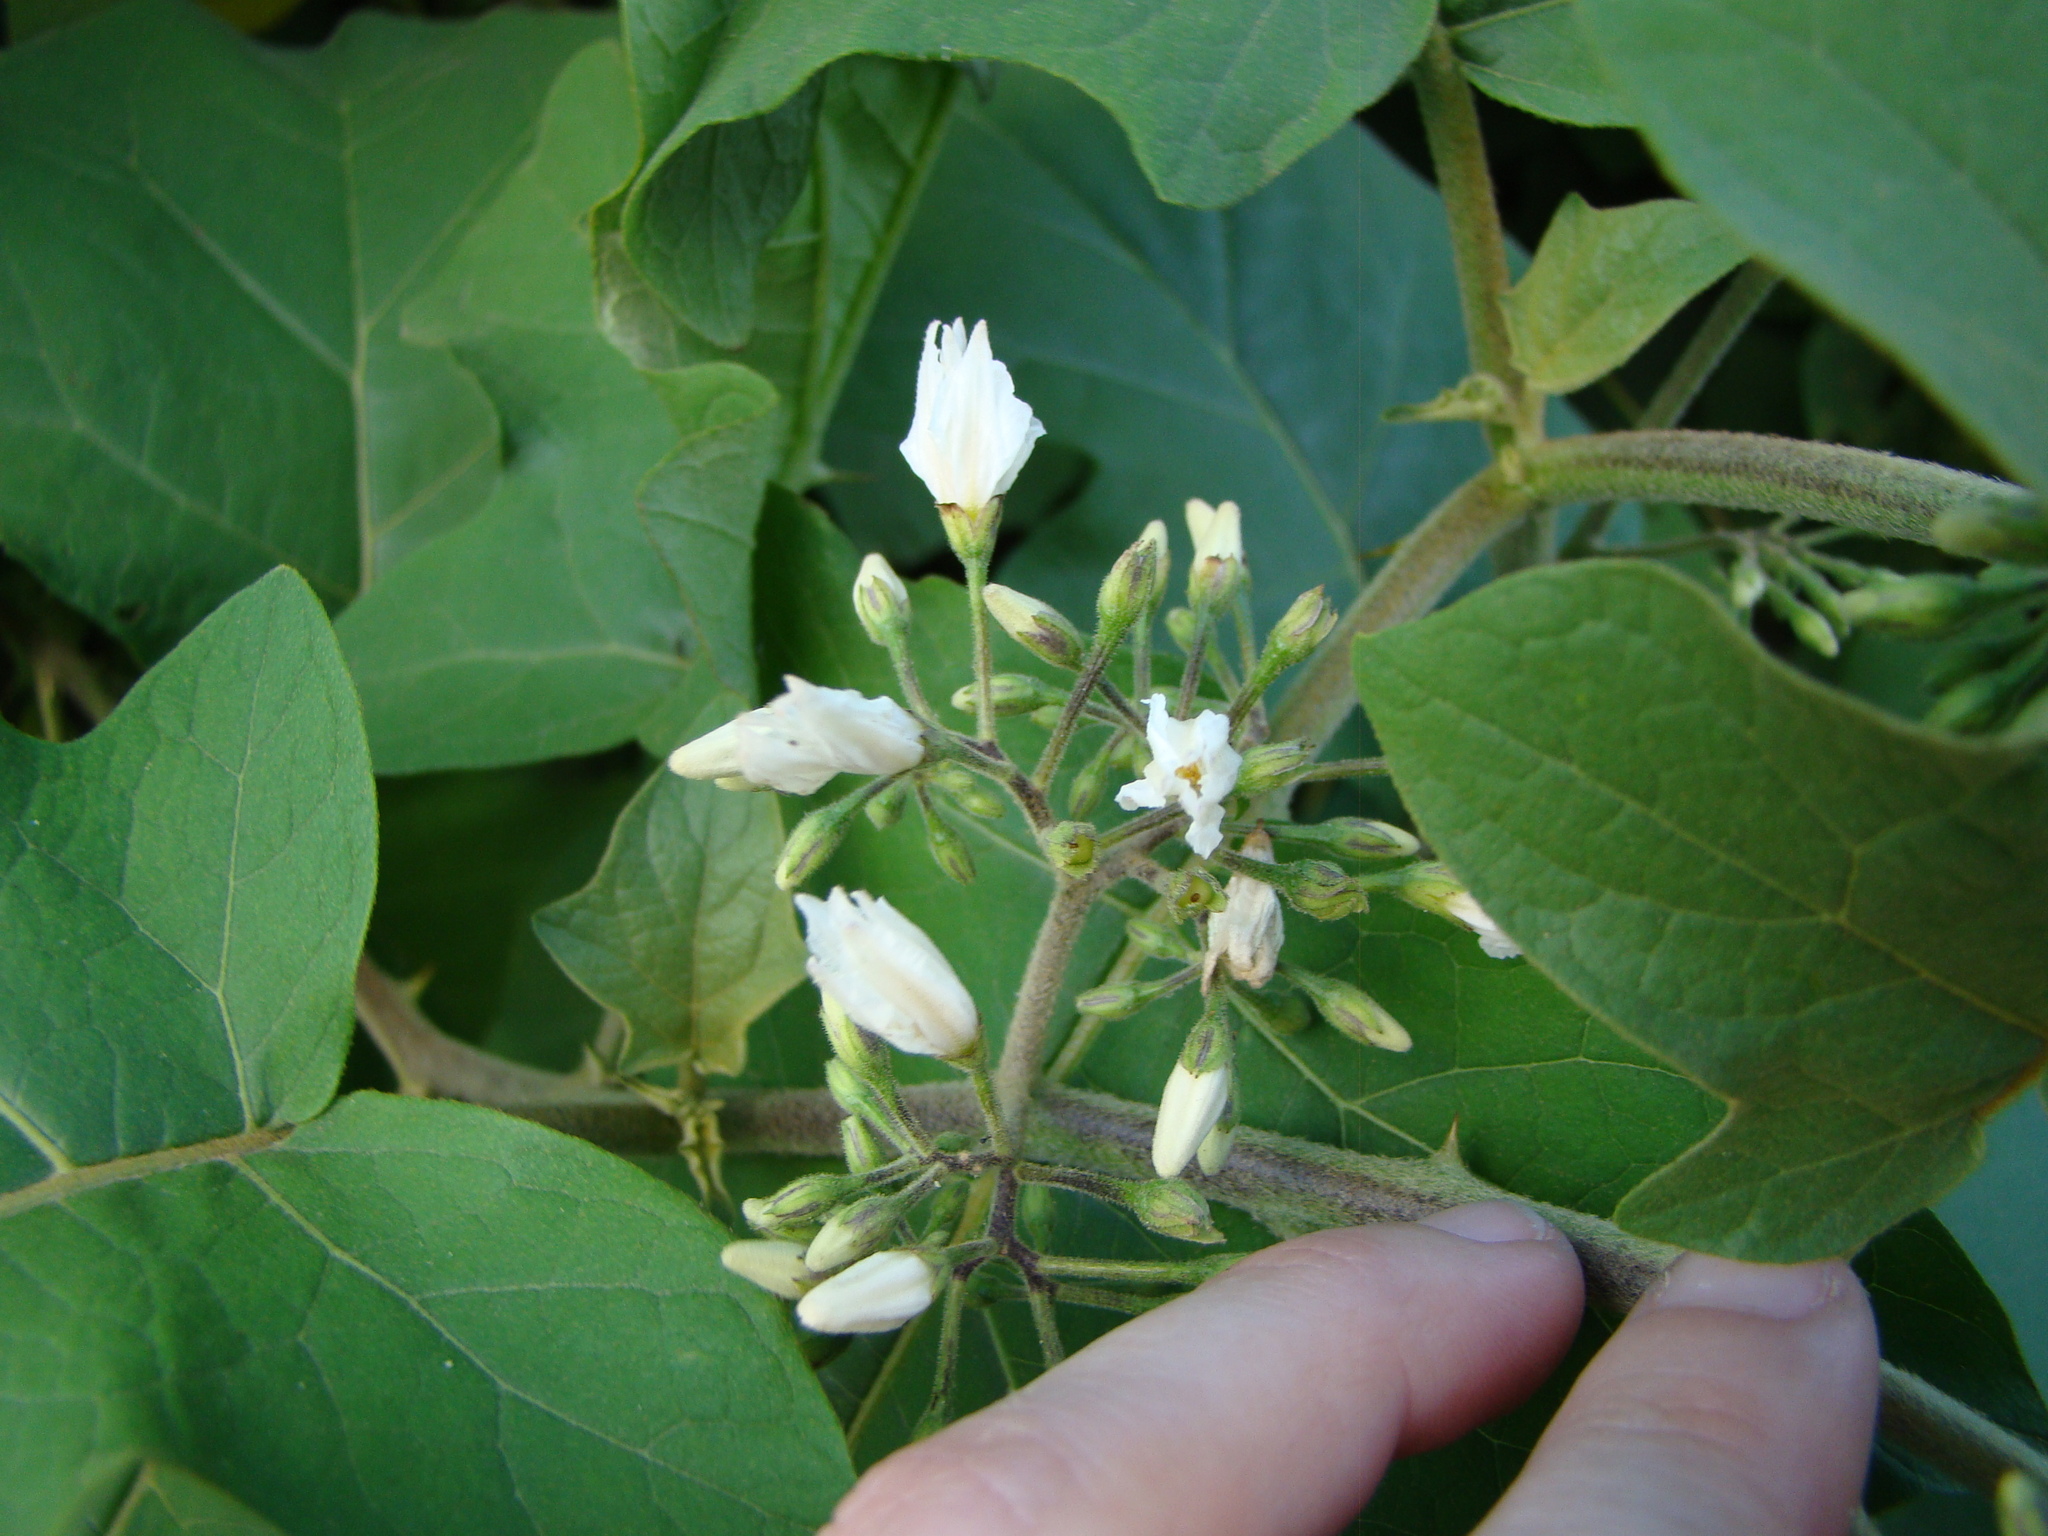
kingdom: Plantae
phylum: Tracheophyta
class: Magnoliopsida
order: Solanales
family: Solanaceae
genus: Solanum
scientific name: Solanum torvum
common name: Turkey berry
